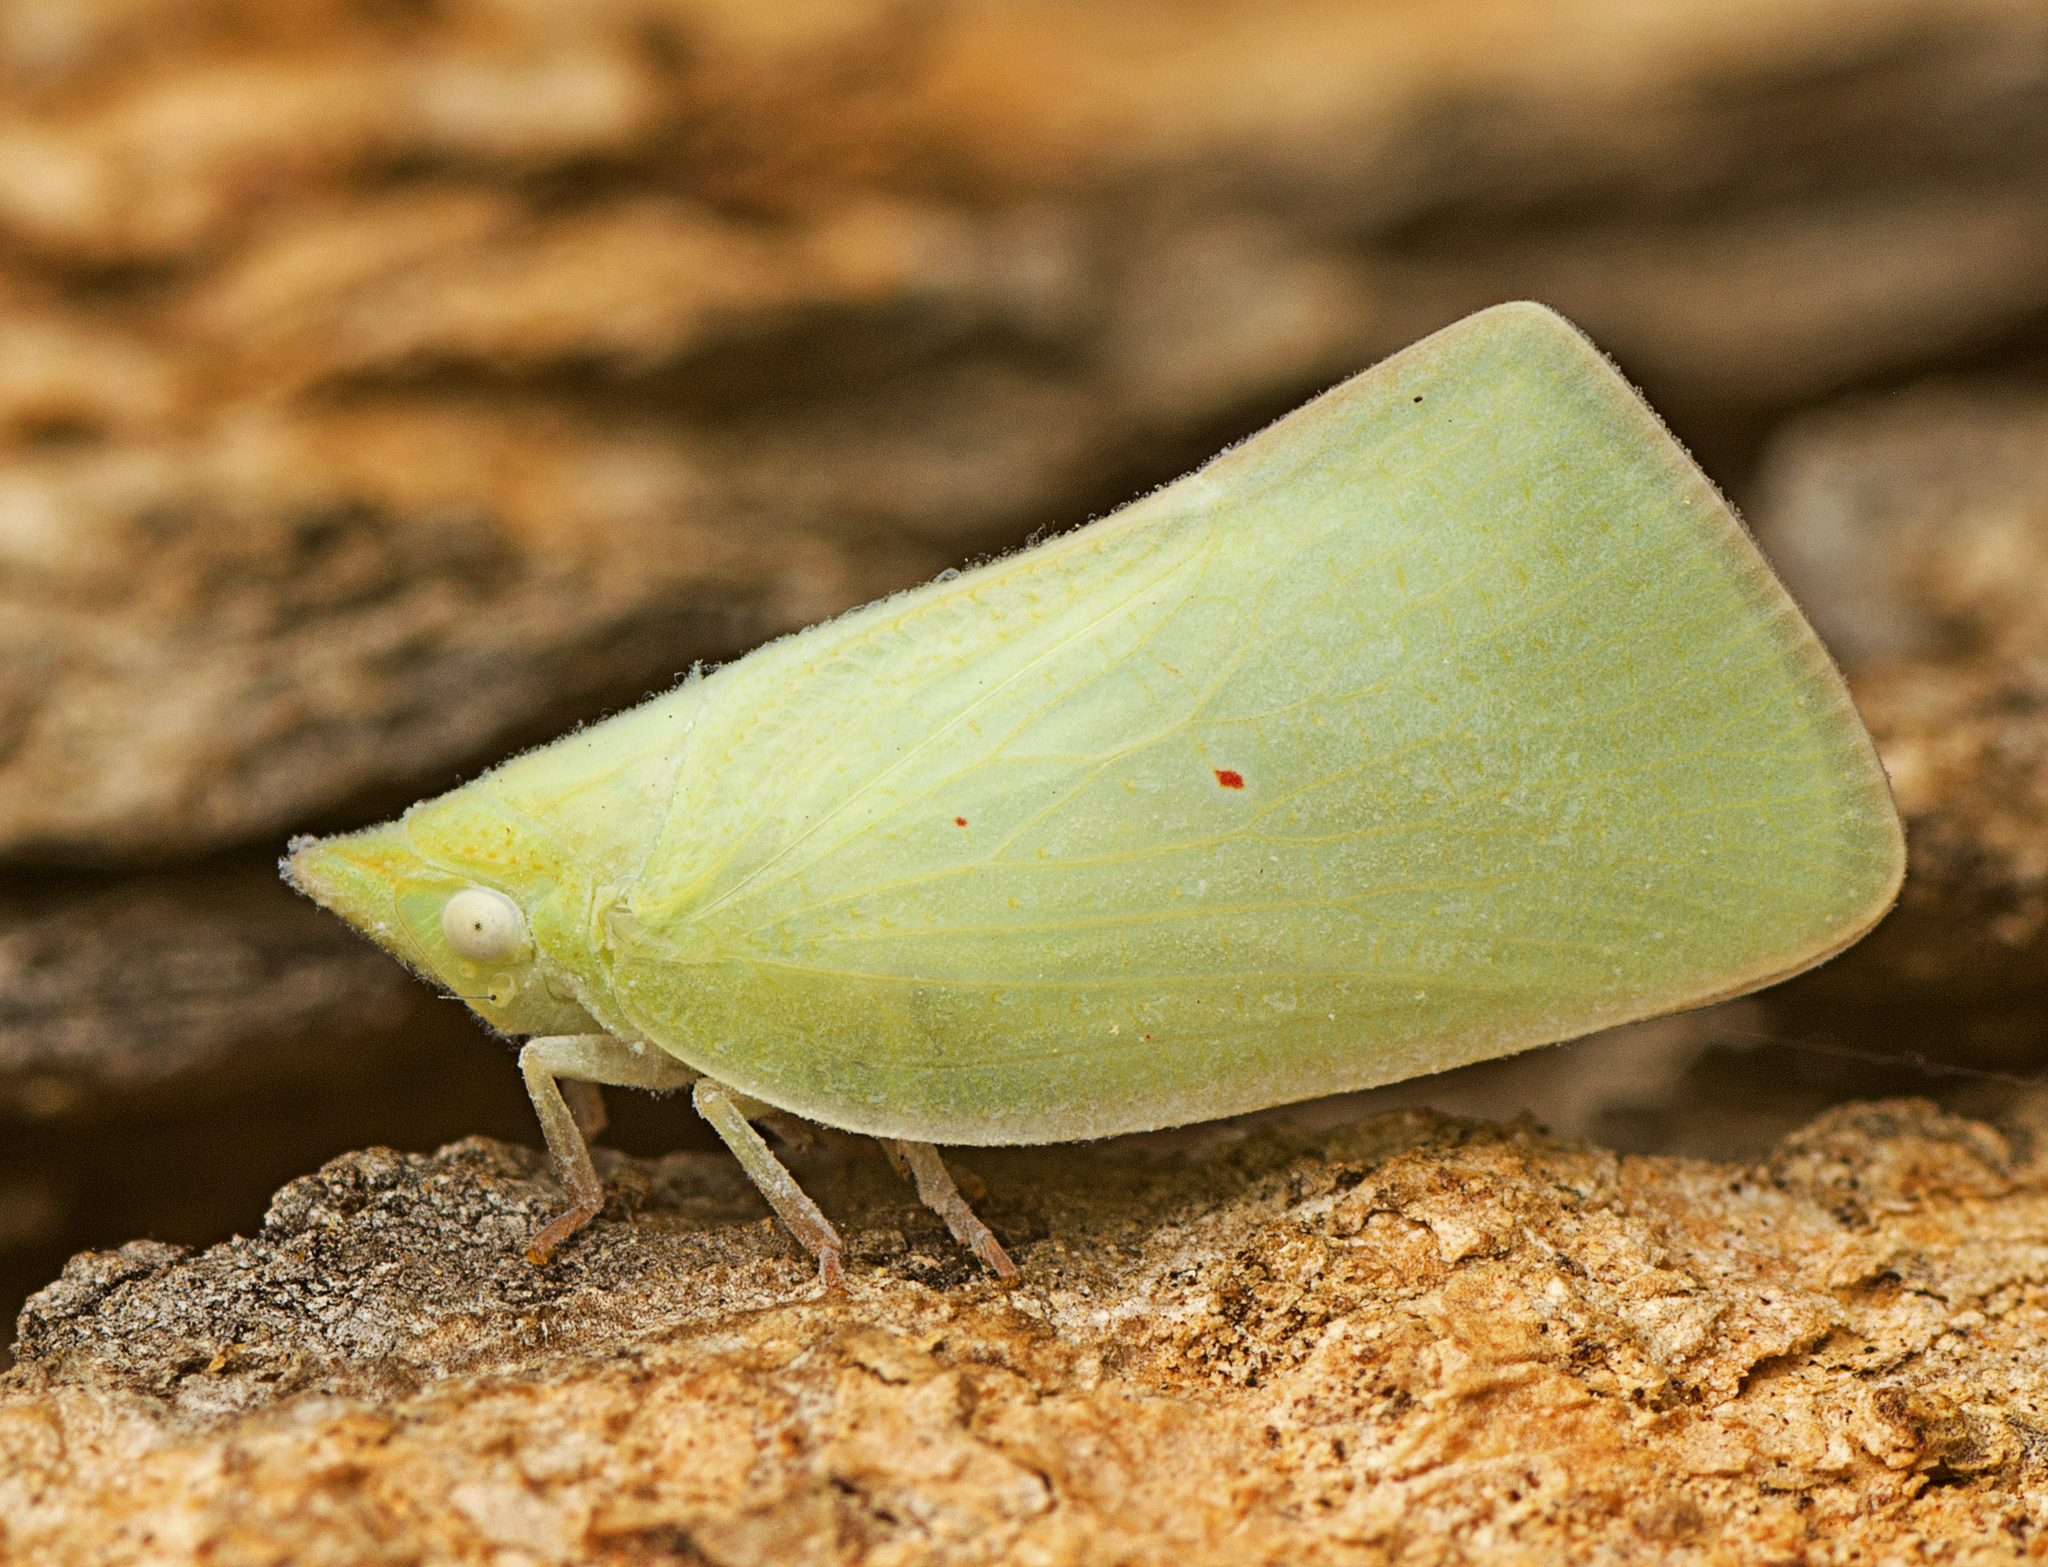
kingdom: Animalia
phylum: Arthropoda
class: Insecta
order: Hemiptera
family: Flatidae
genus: Colgaroides
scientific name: Colgaroides acuminata
